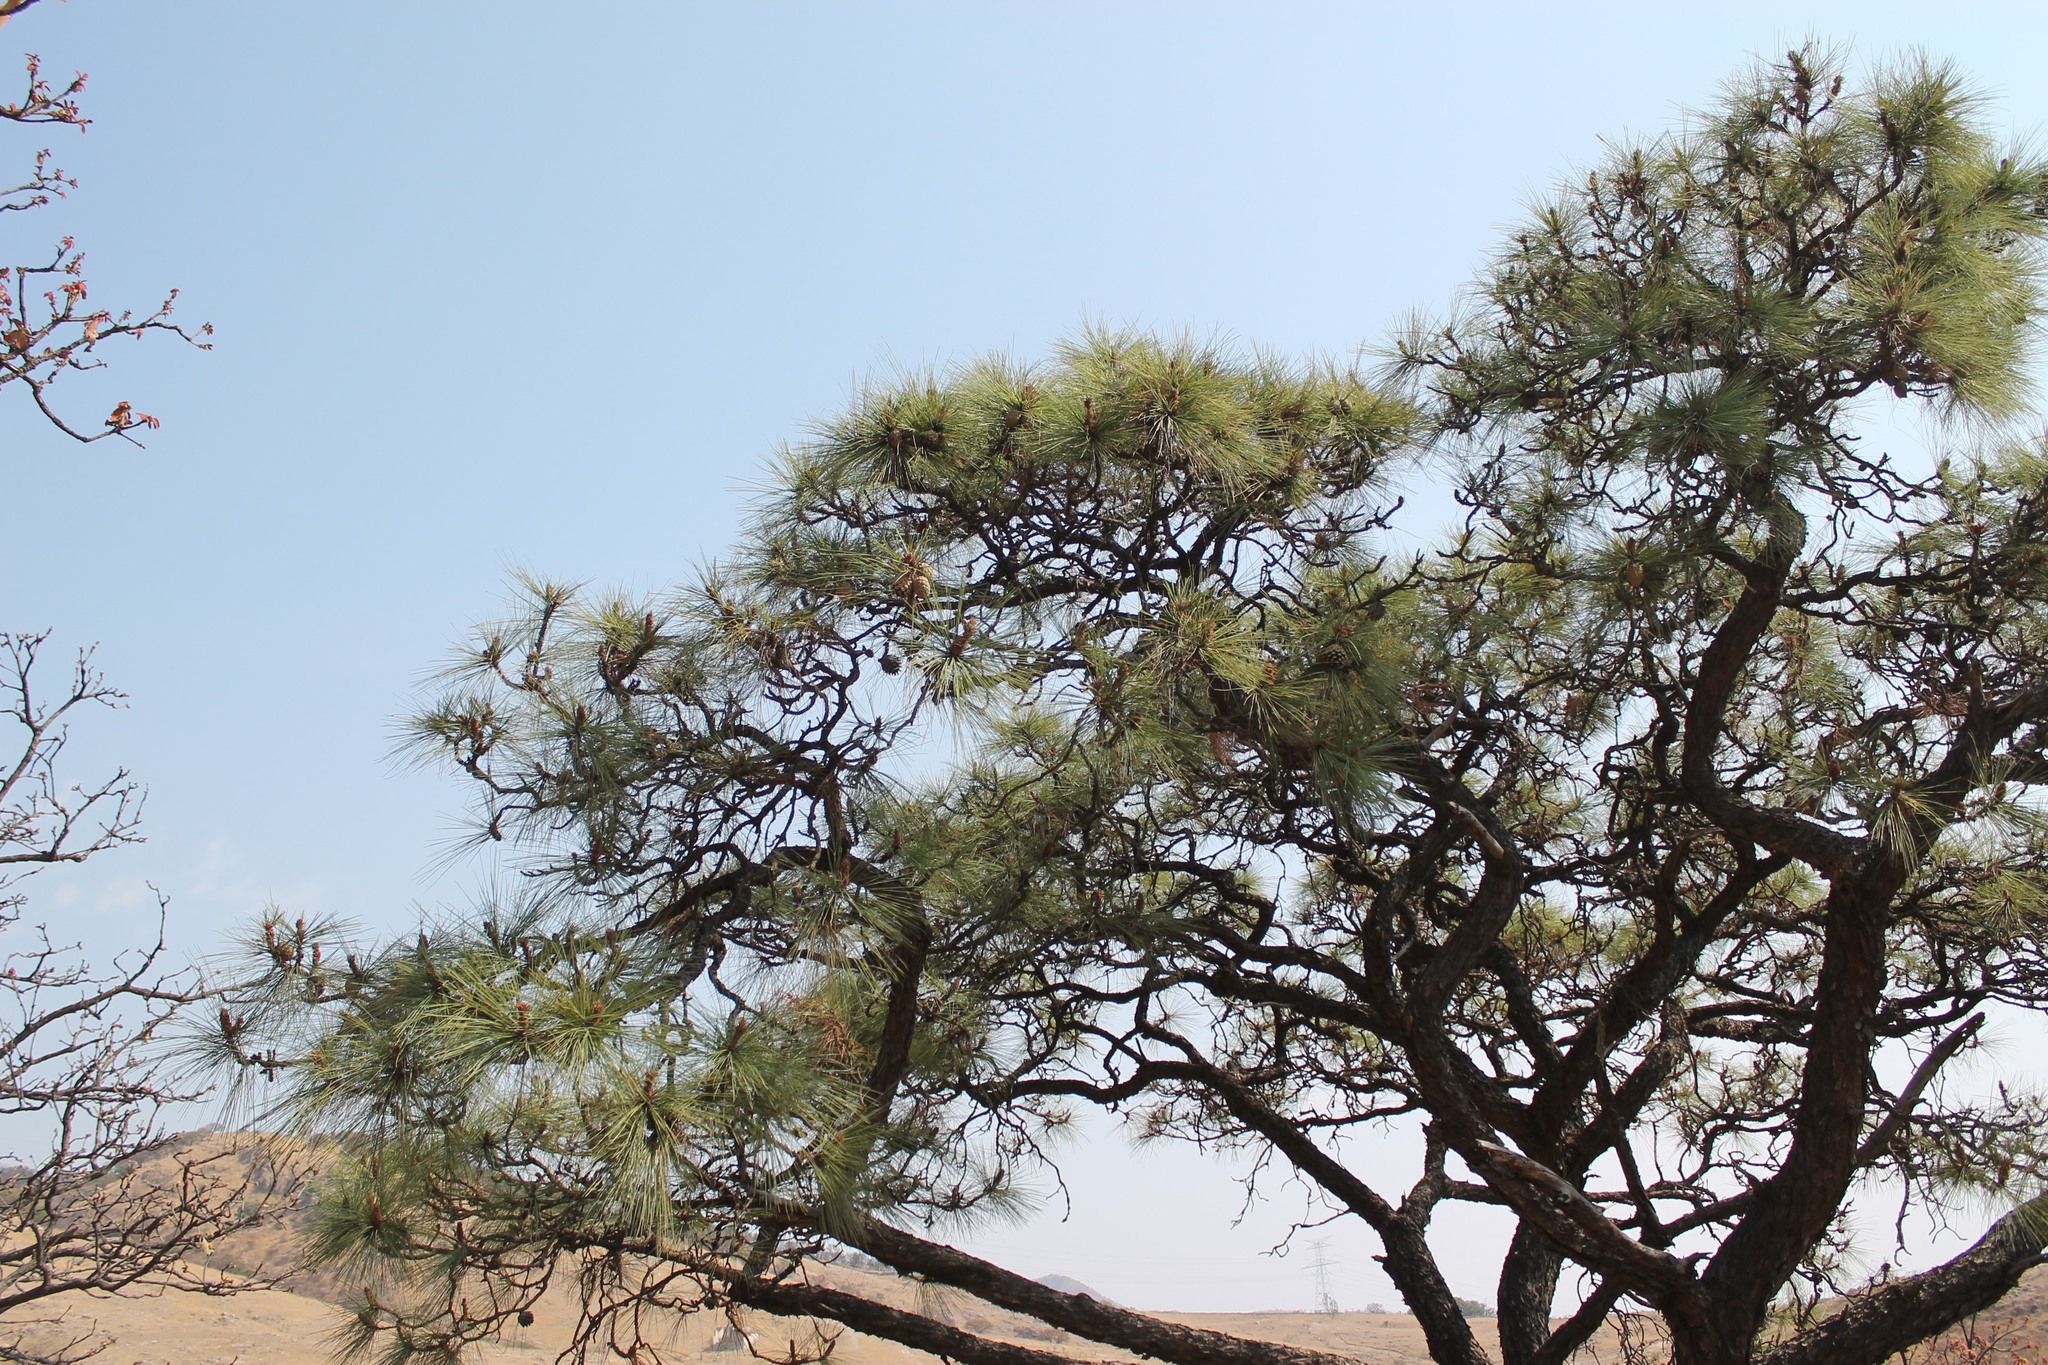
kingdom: Plantae
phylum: Tracheophyta
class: Pinopsida
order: Pinales
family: Pinaceae
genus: Pinus
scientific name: Pinus oocarpa
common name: Egg-cone pine
